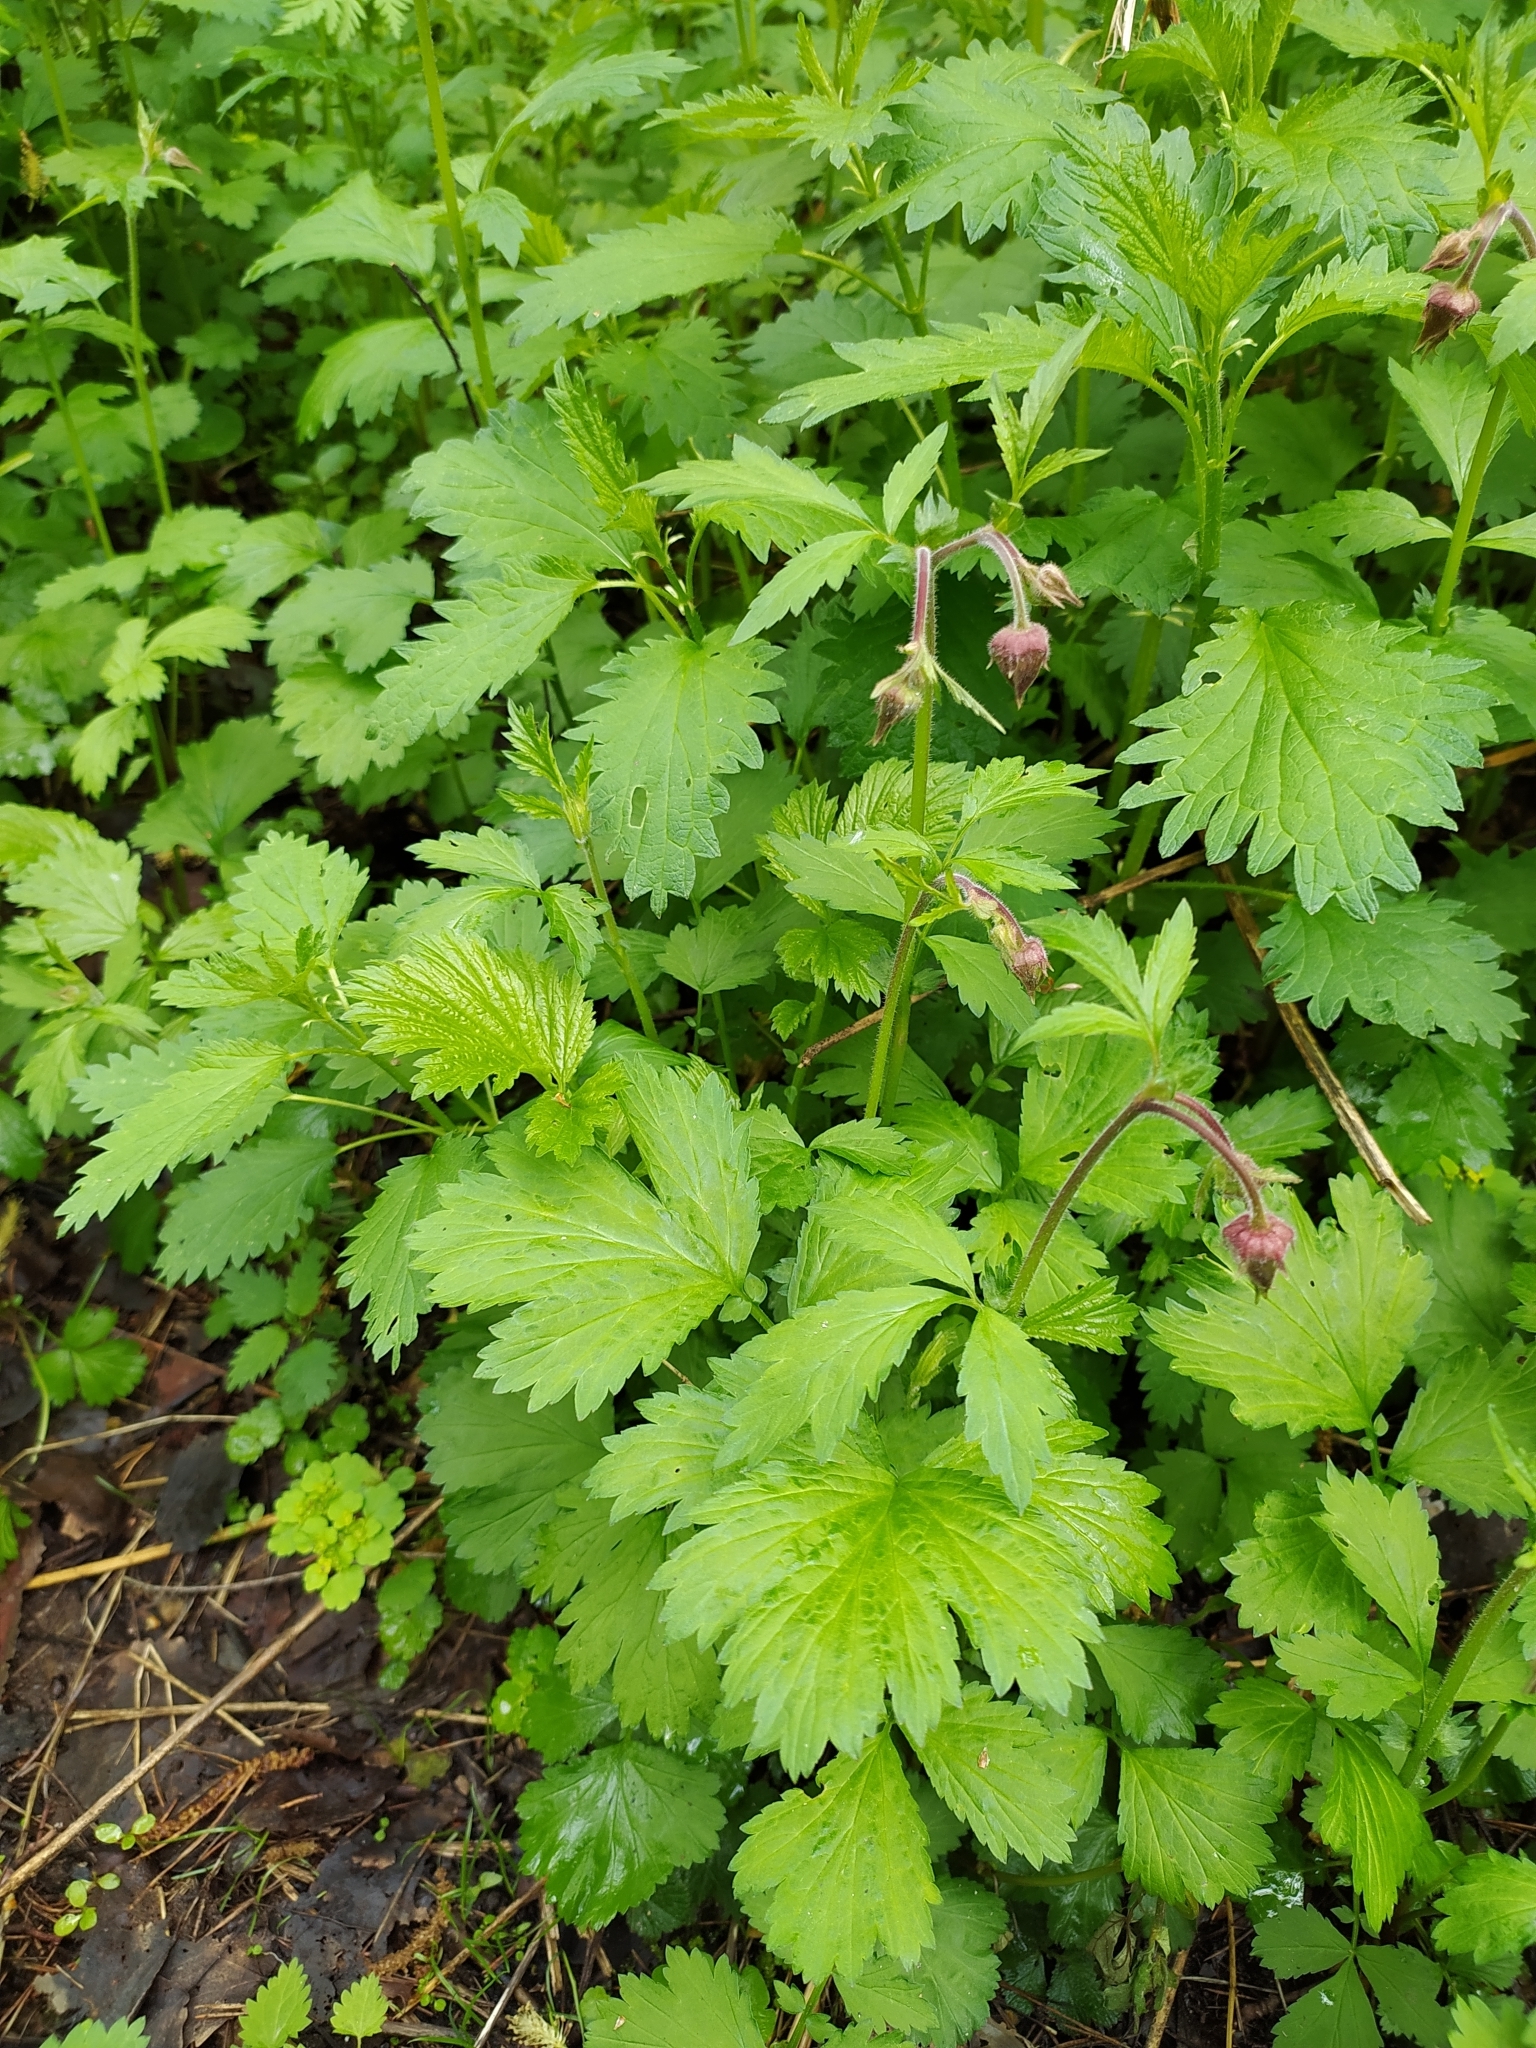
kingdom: Plantae
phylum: Tracheophyta
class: Magnoliopsida
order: Rosales
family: Rosaceae
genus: Geum
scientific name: Geum rivale
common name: Water avens
